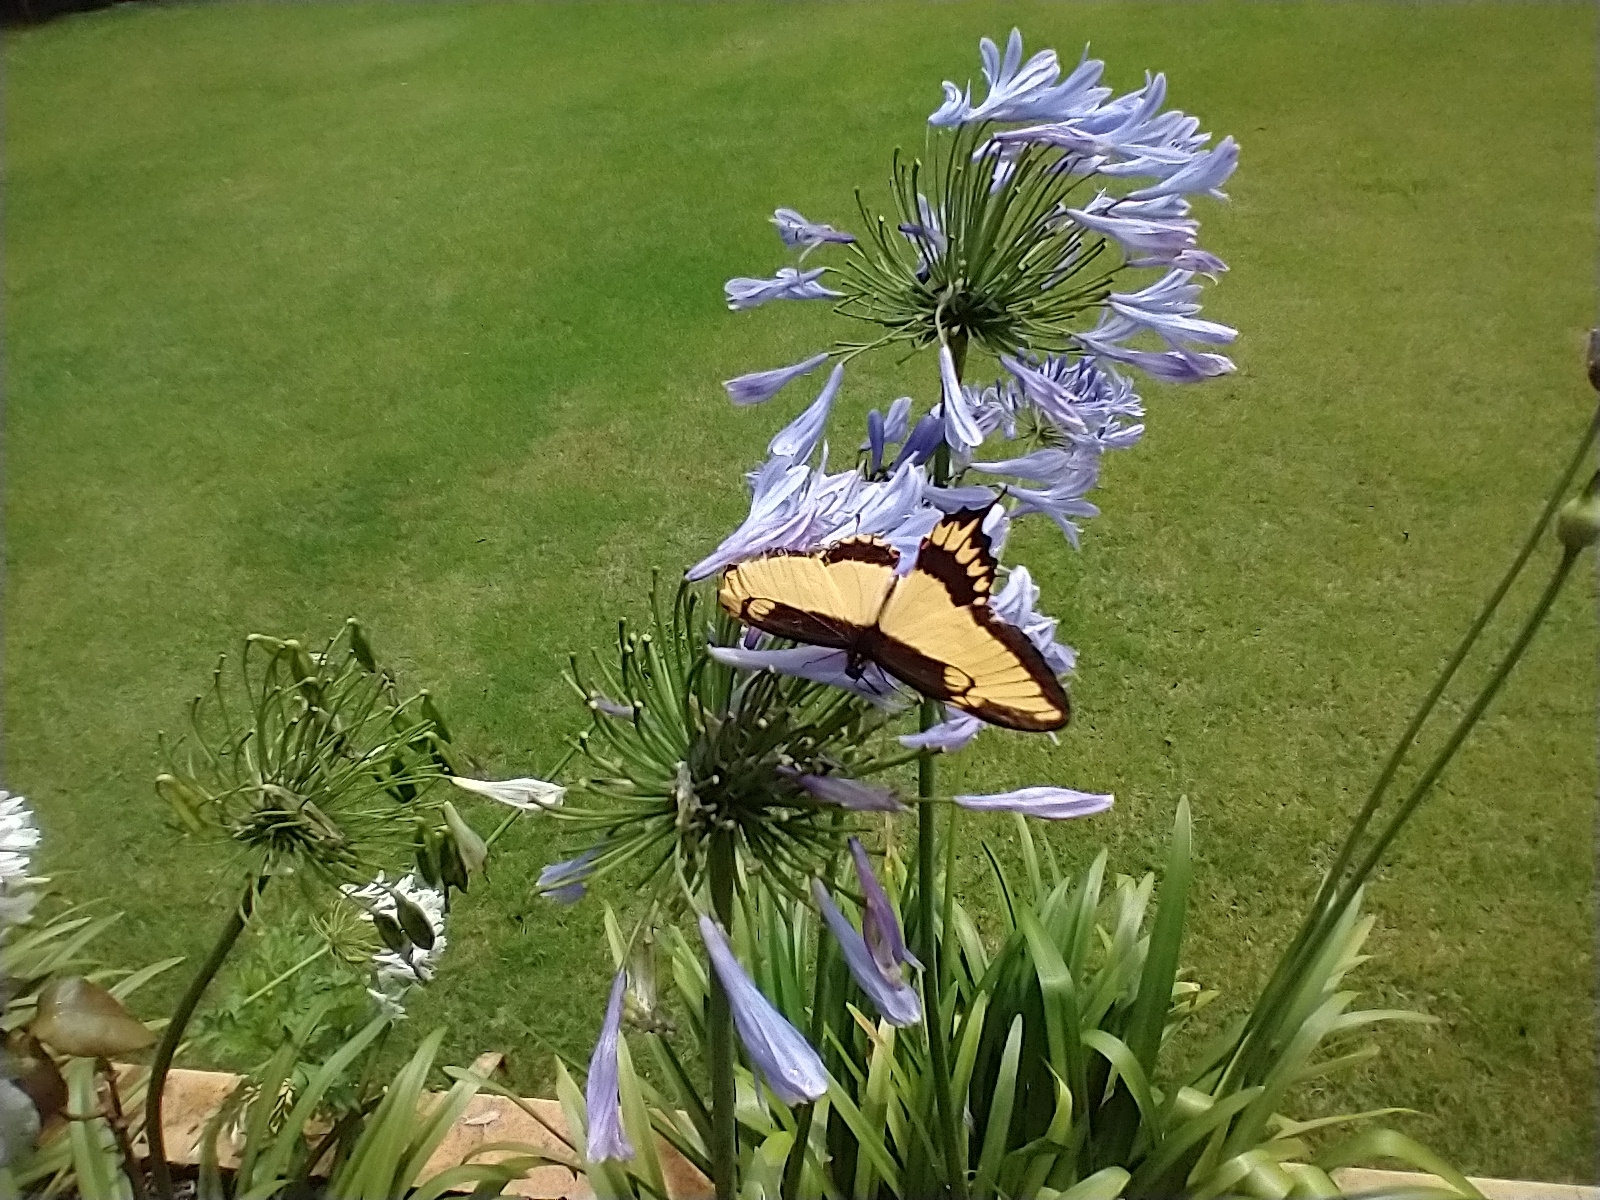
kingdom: Animalia
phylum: Arthropoda
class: Insecta
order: Lepidoptera
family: Papilionidae
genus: Papilio
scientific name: Papilio astyalus
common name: Astyalus swallowtail
